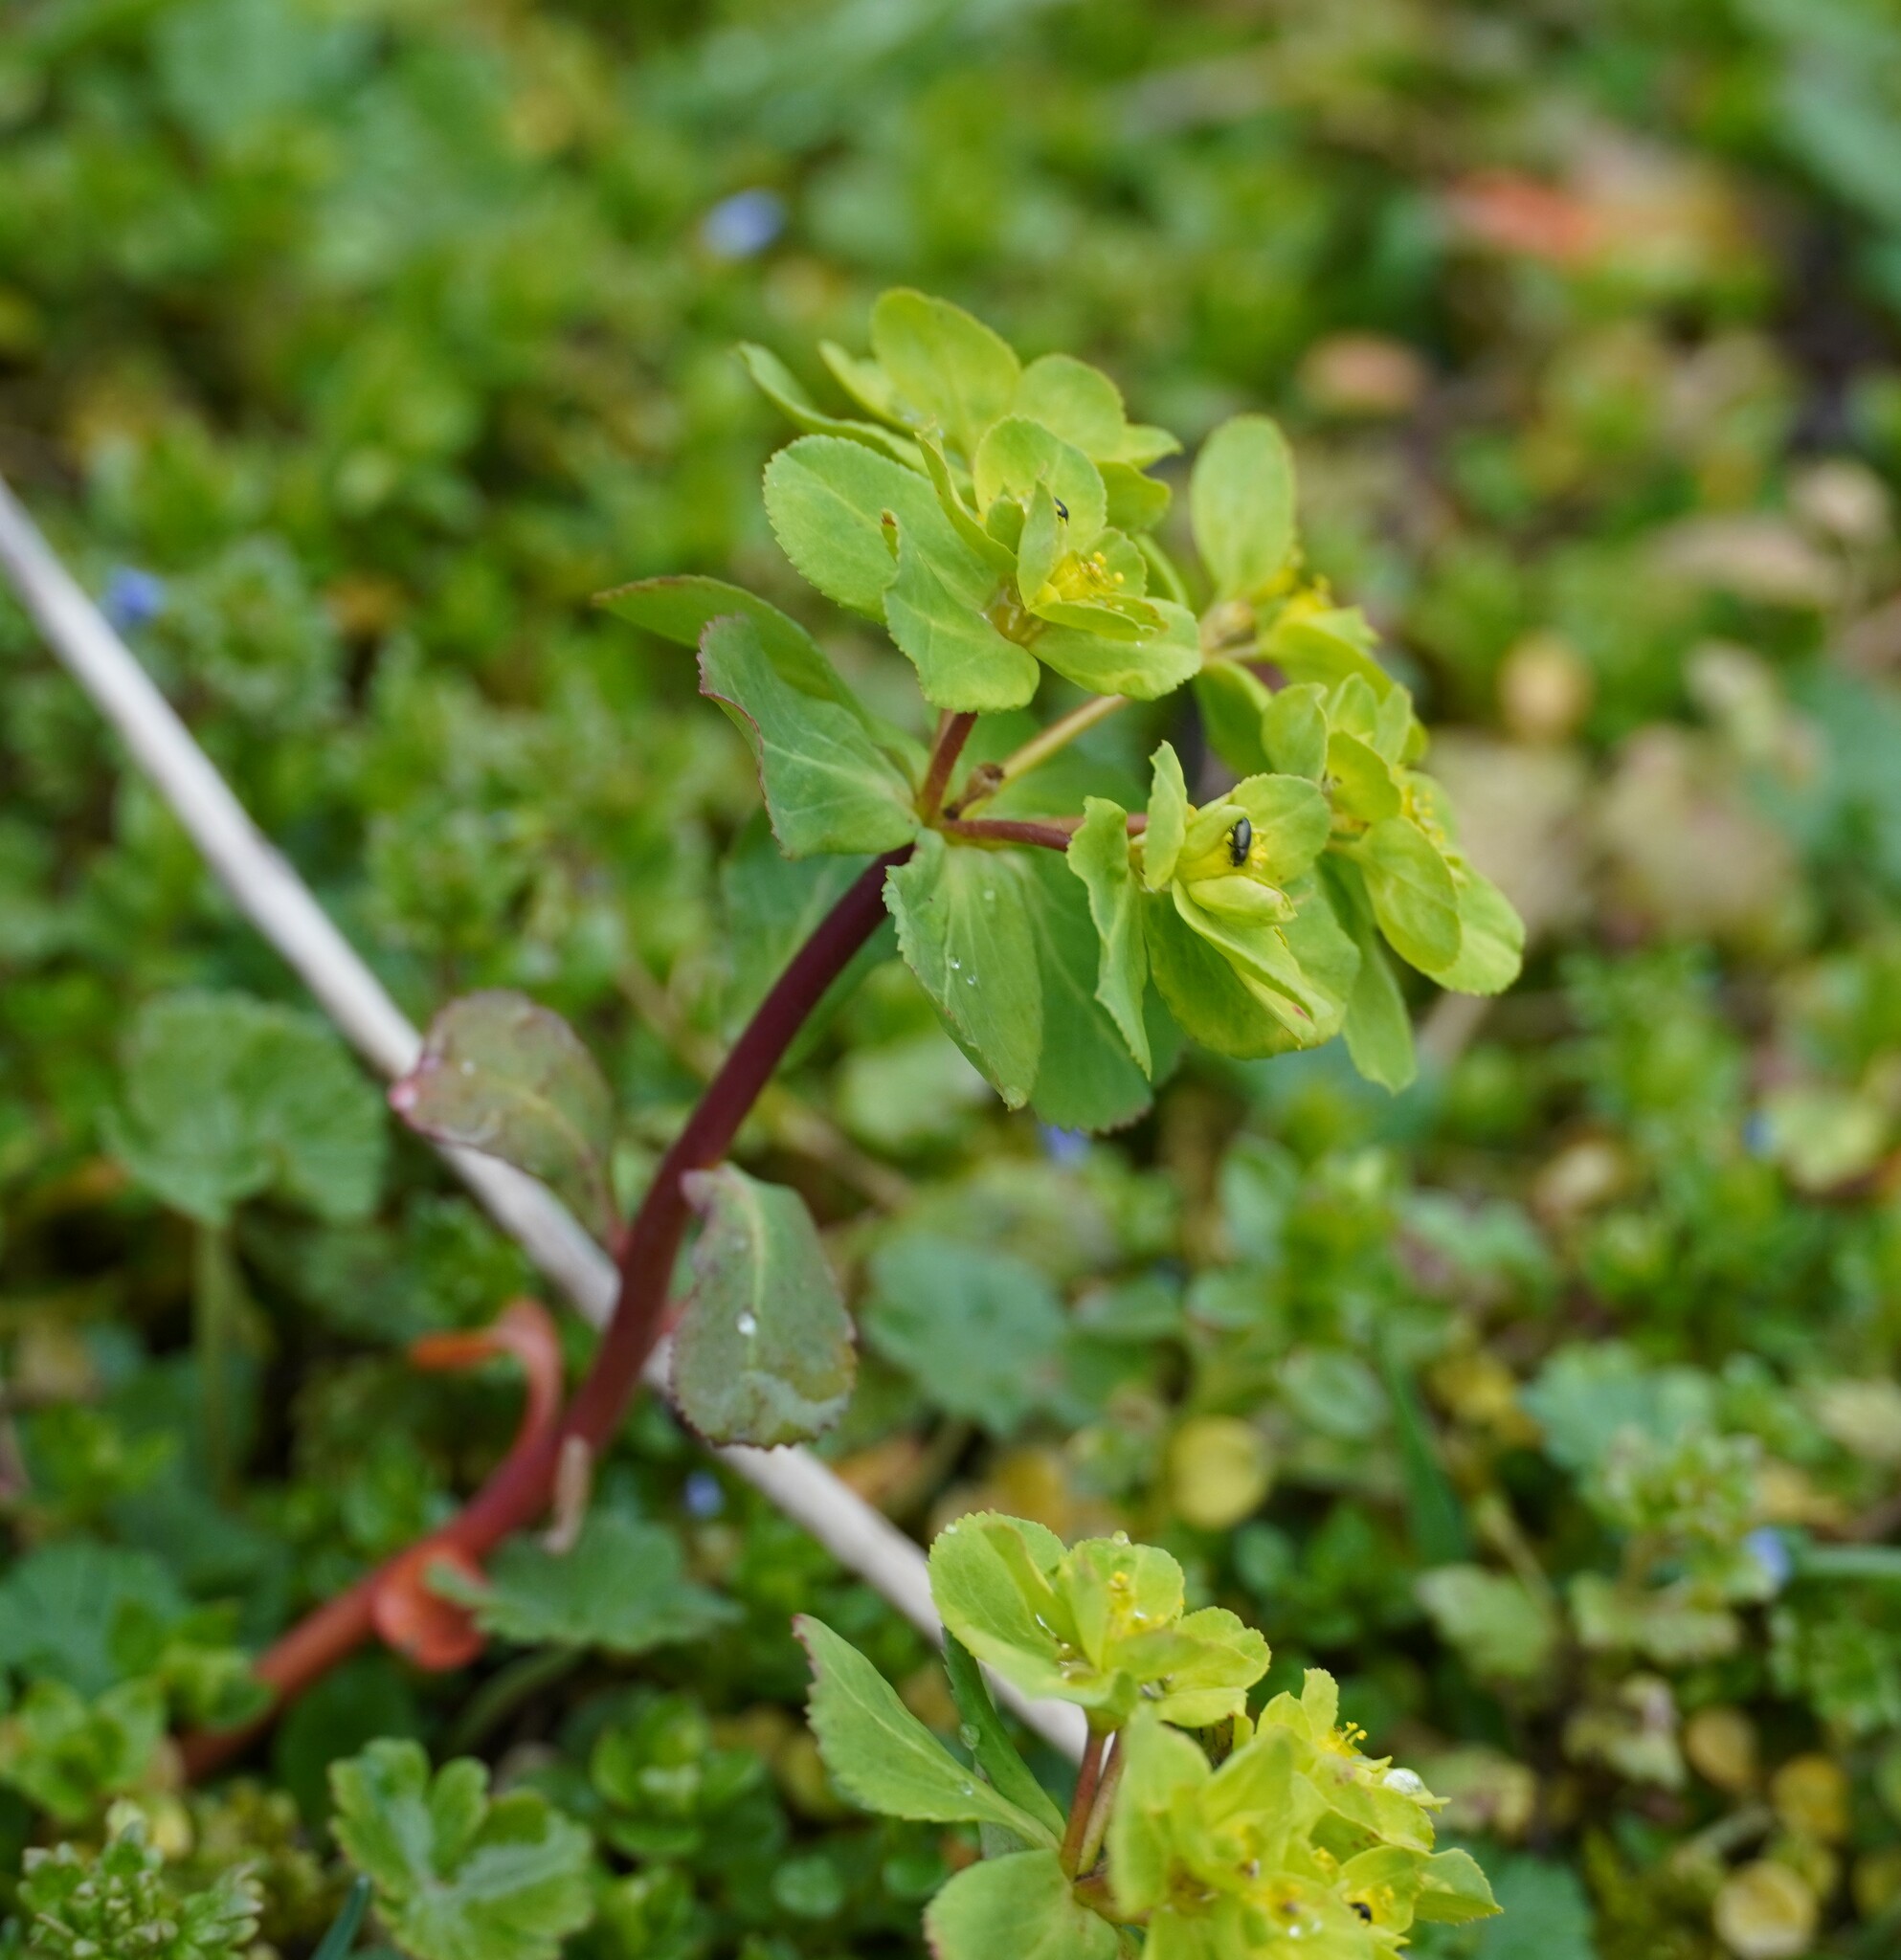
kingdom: Plantae
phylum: Tracheophyta
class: Magnoliopsida
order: Malpighiales
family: Euphorbiaceae
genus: Euphorbia
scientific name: Euphorbia helioscopia
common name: Sun spurge
